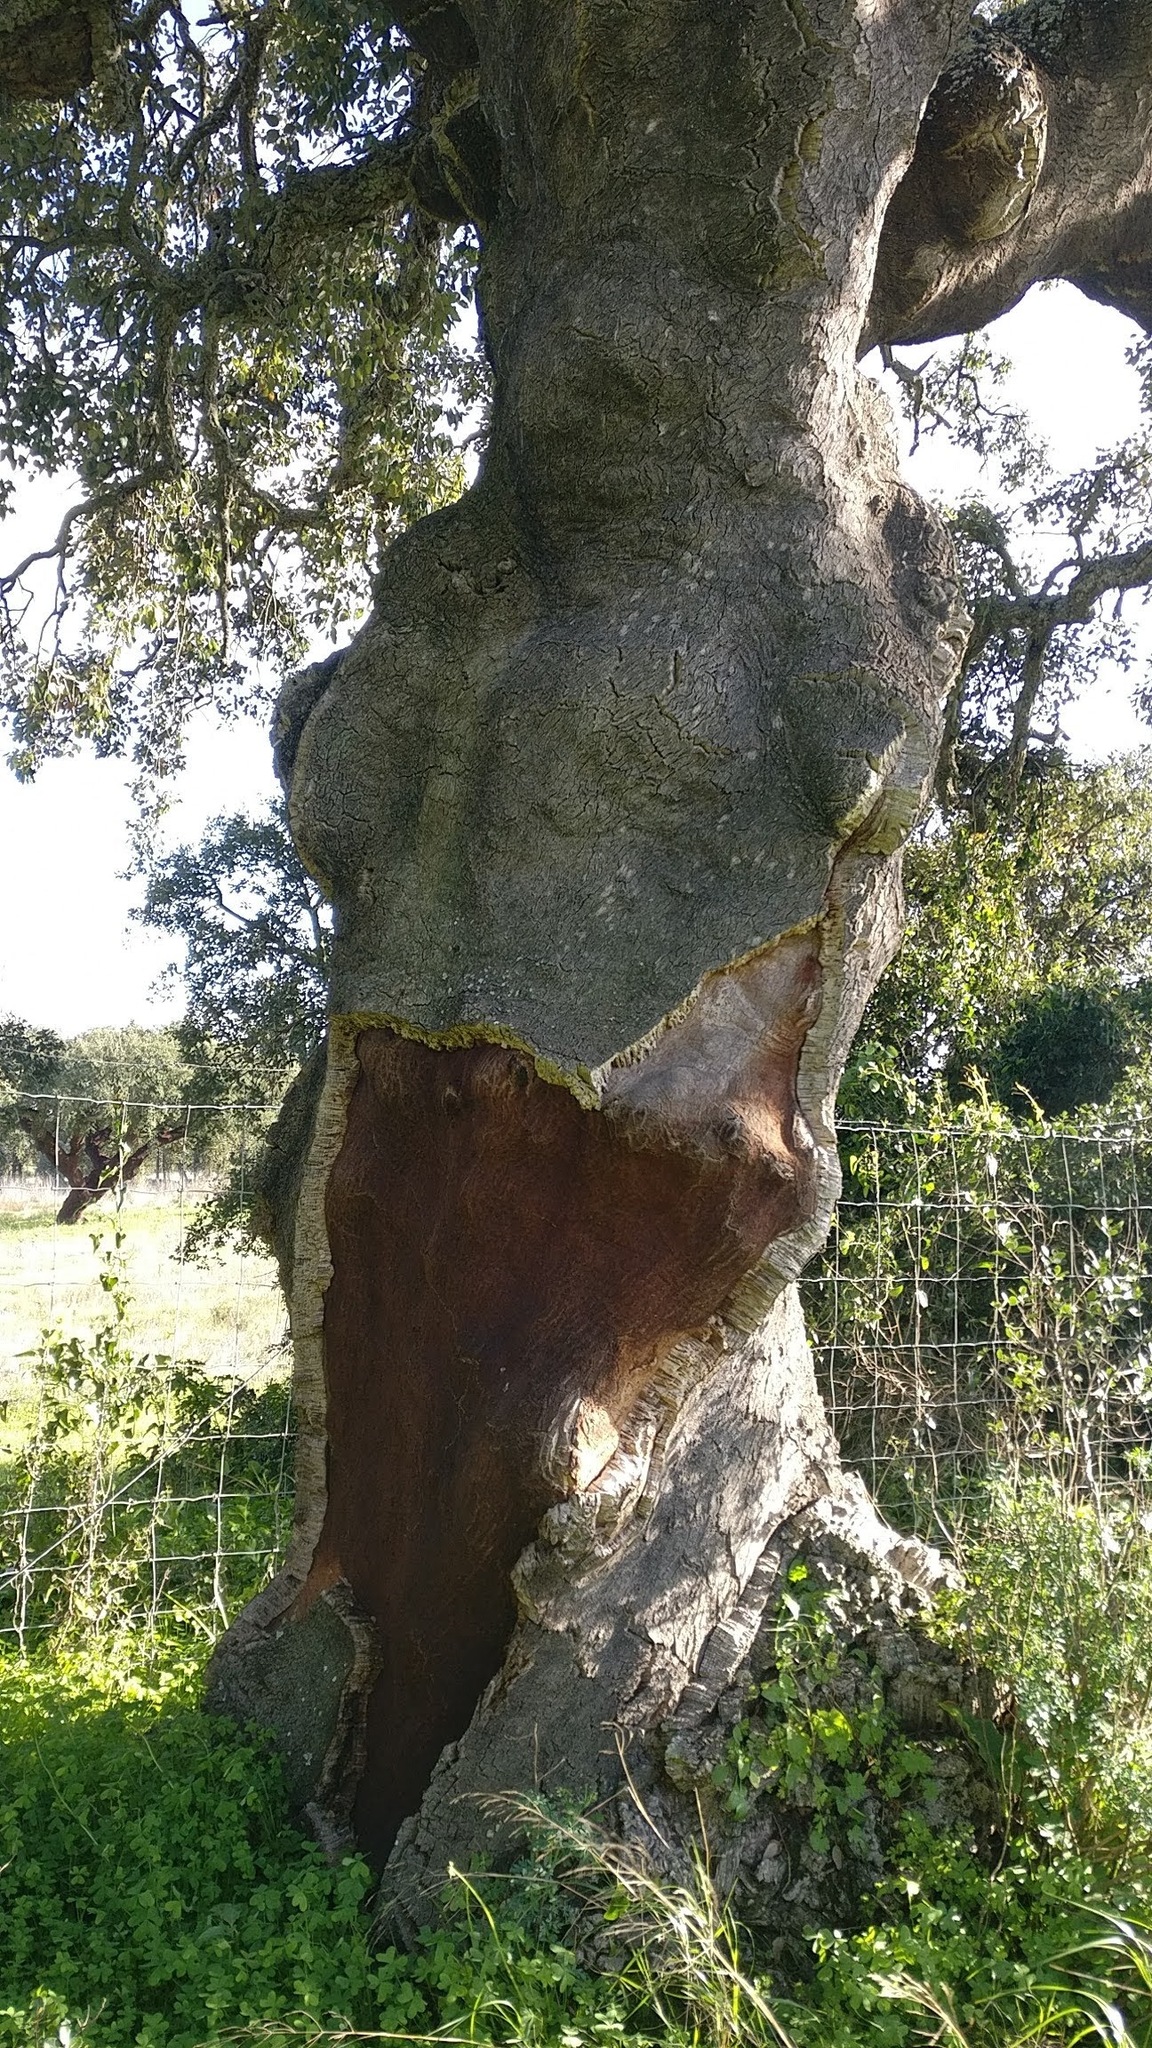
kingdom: Plantae
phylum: Tracheophyta
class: Magnoliopsida
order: Fagales
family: Fagaceae
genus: Quercus
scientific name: Quercus suber
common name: Cork oak
